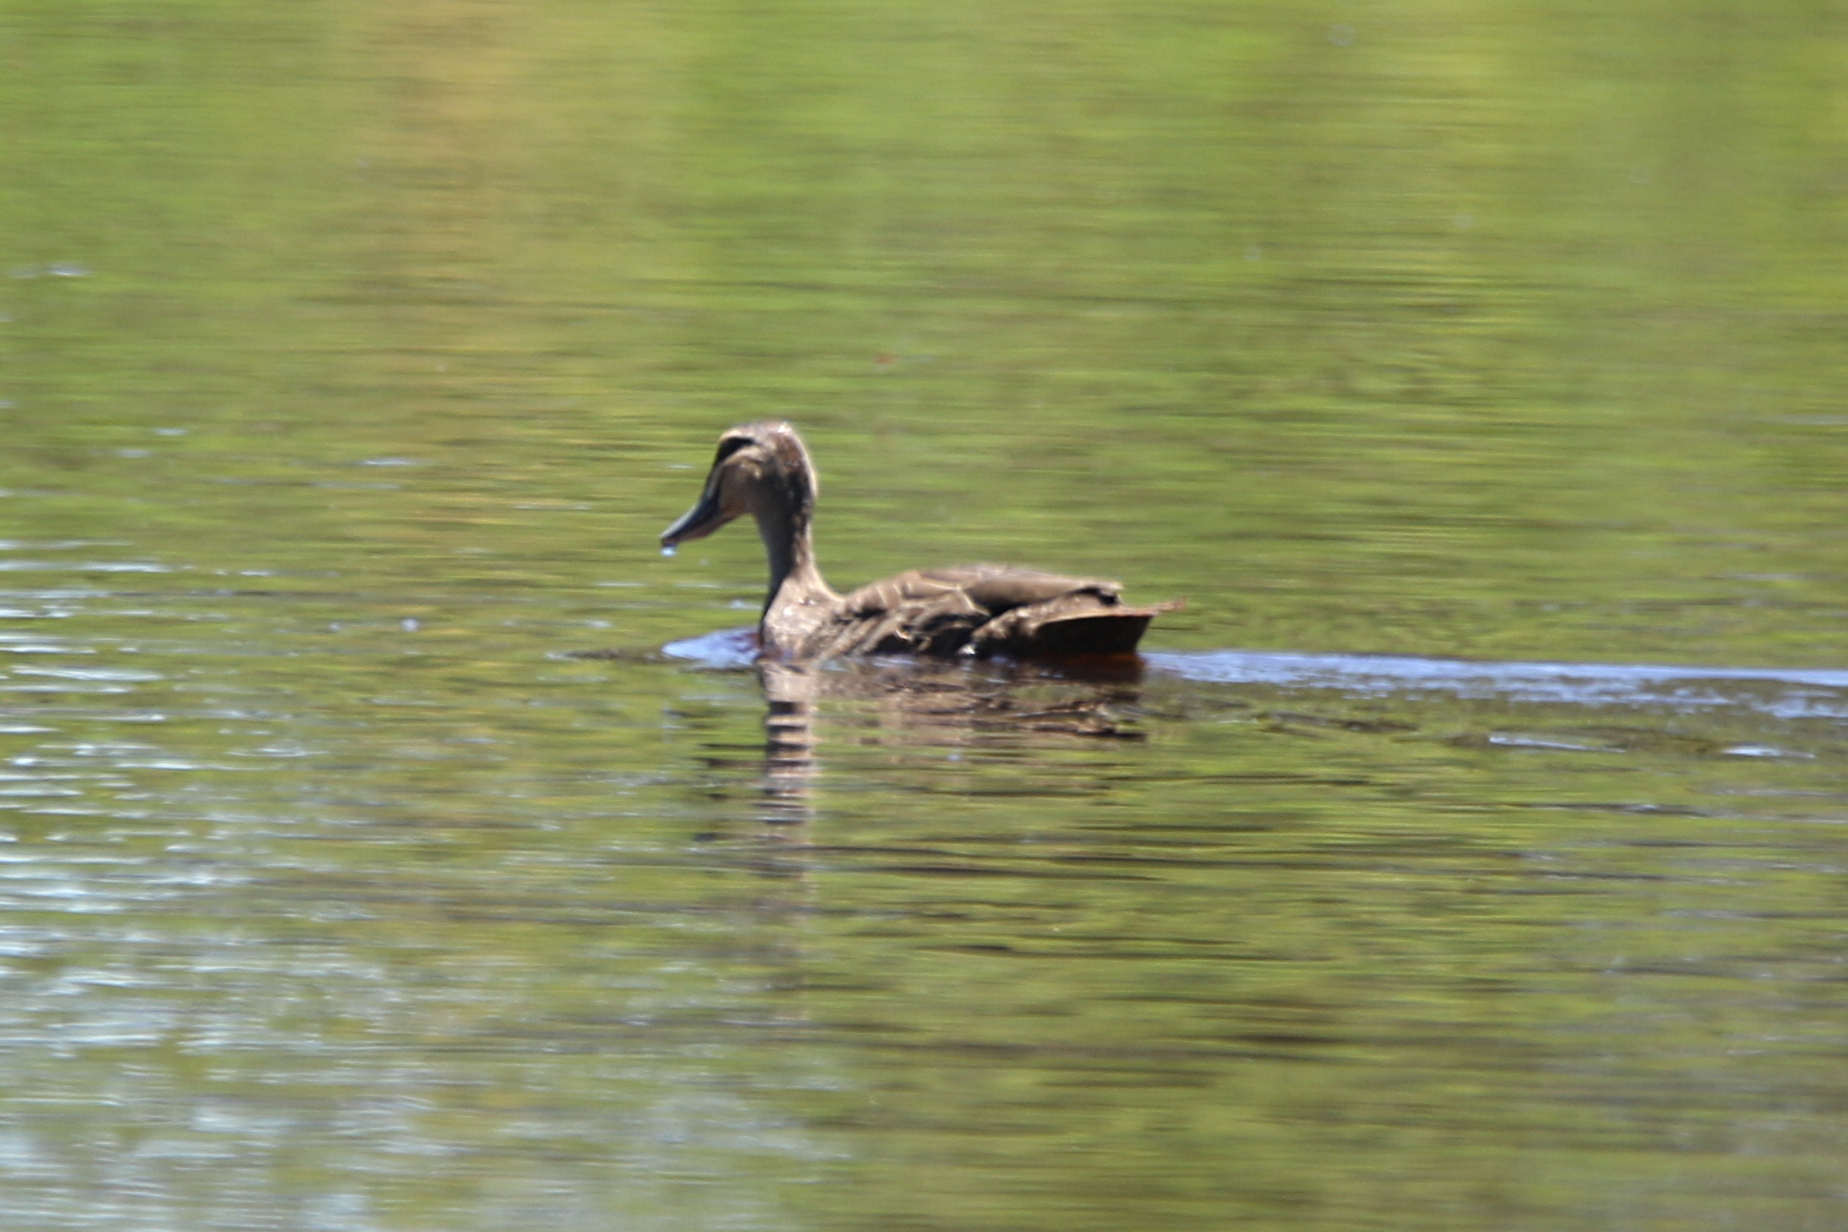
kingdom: Animalia
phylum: Chordata
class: Aves
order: Anseriformes
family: Anatidae
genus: Anas
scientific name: Anas superciliosa
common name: Pacific black duck
